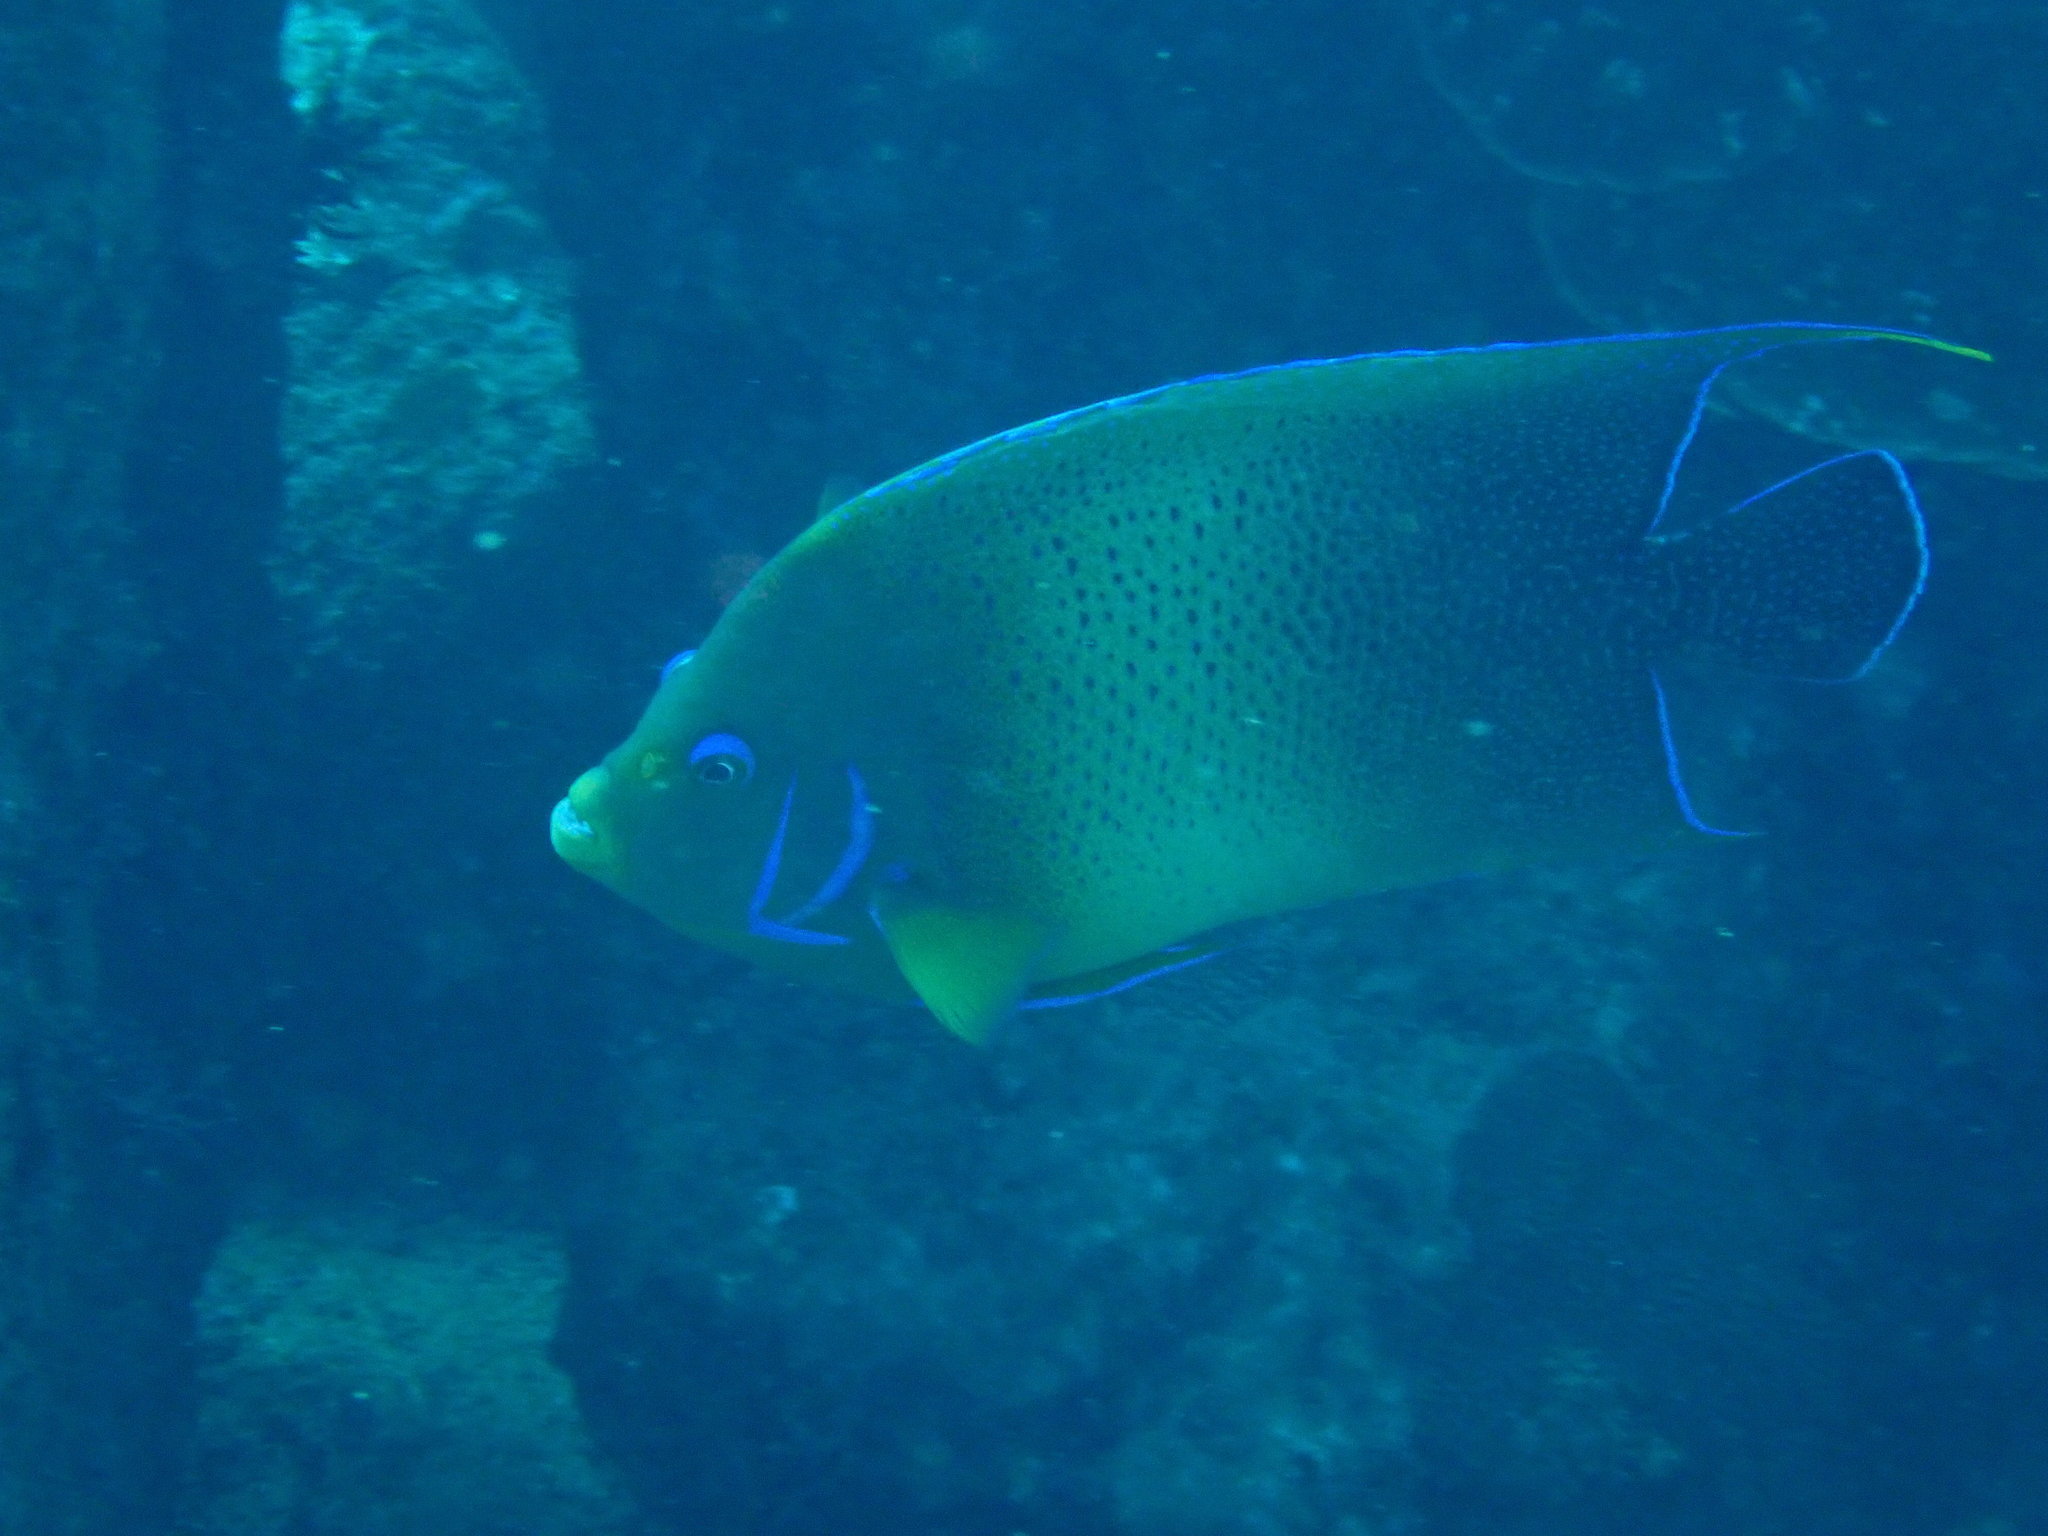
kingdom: Animalia
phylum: Chordata
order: Perciformes
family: Pomacanthidae
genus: Pomacanthus
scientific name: Pomacanthus semicirculatus
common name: Semicircle angelfish
